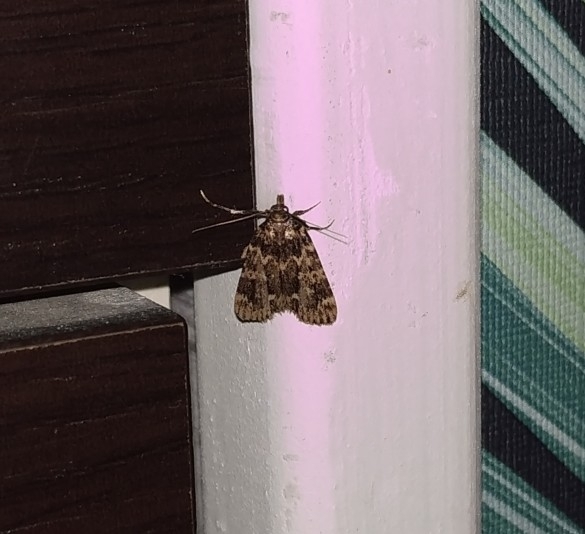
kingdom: Animalia
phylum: Arthropoda
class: Insecta
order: Lepidoptera
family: Pyralidae
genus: Aglossa
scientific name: Aglossa caprealis
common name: Small tabby
